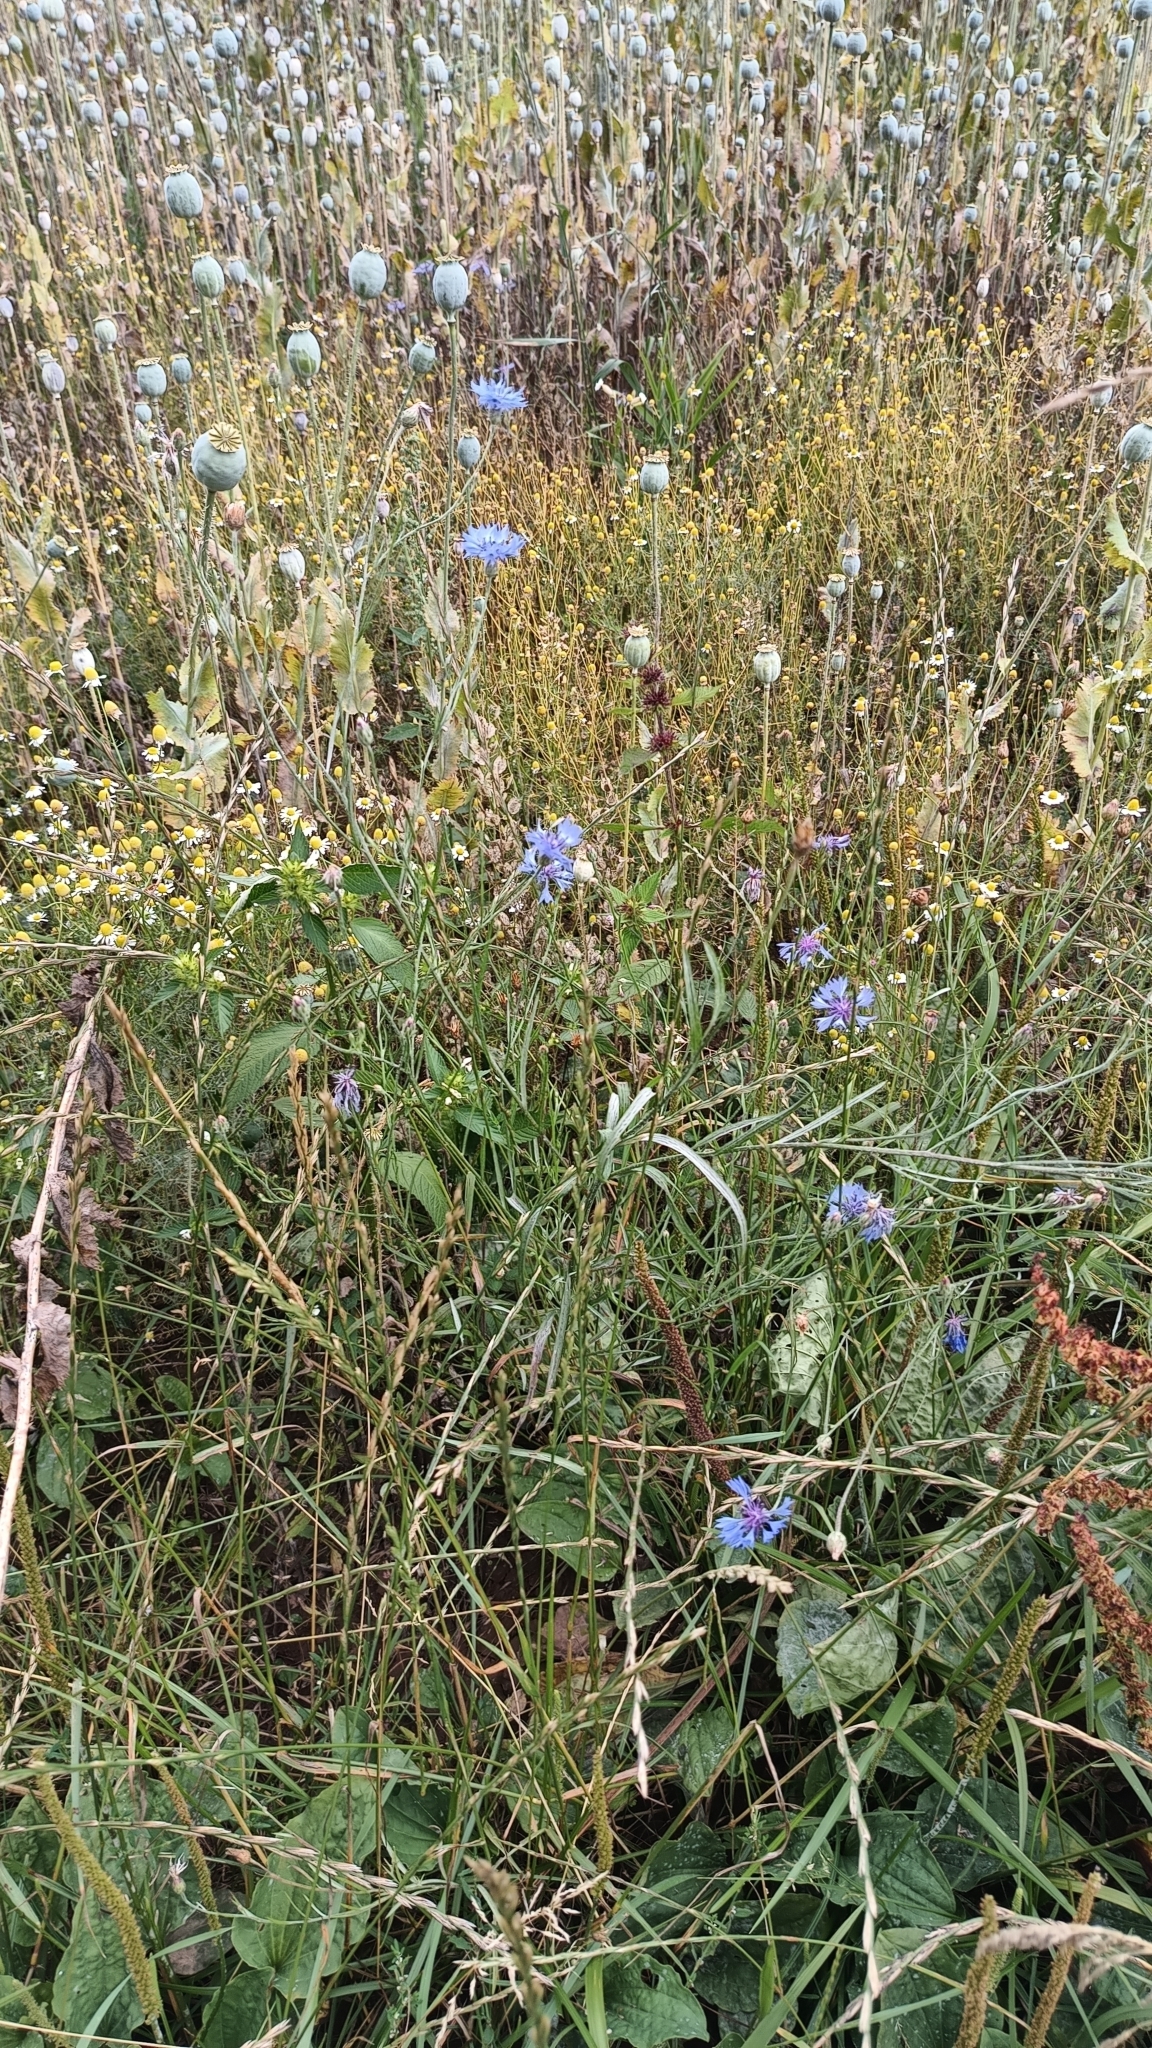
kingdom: Plantae
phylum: Tracheophyta
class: Magnoliopsida
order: Asterales
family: Asteraceae
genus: Centaurea
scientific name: Centaurea cyanus
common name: Cornflower
